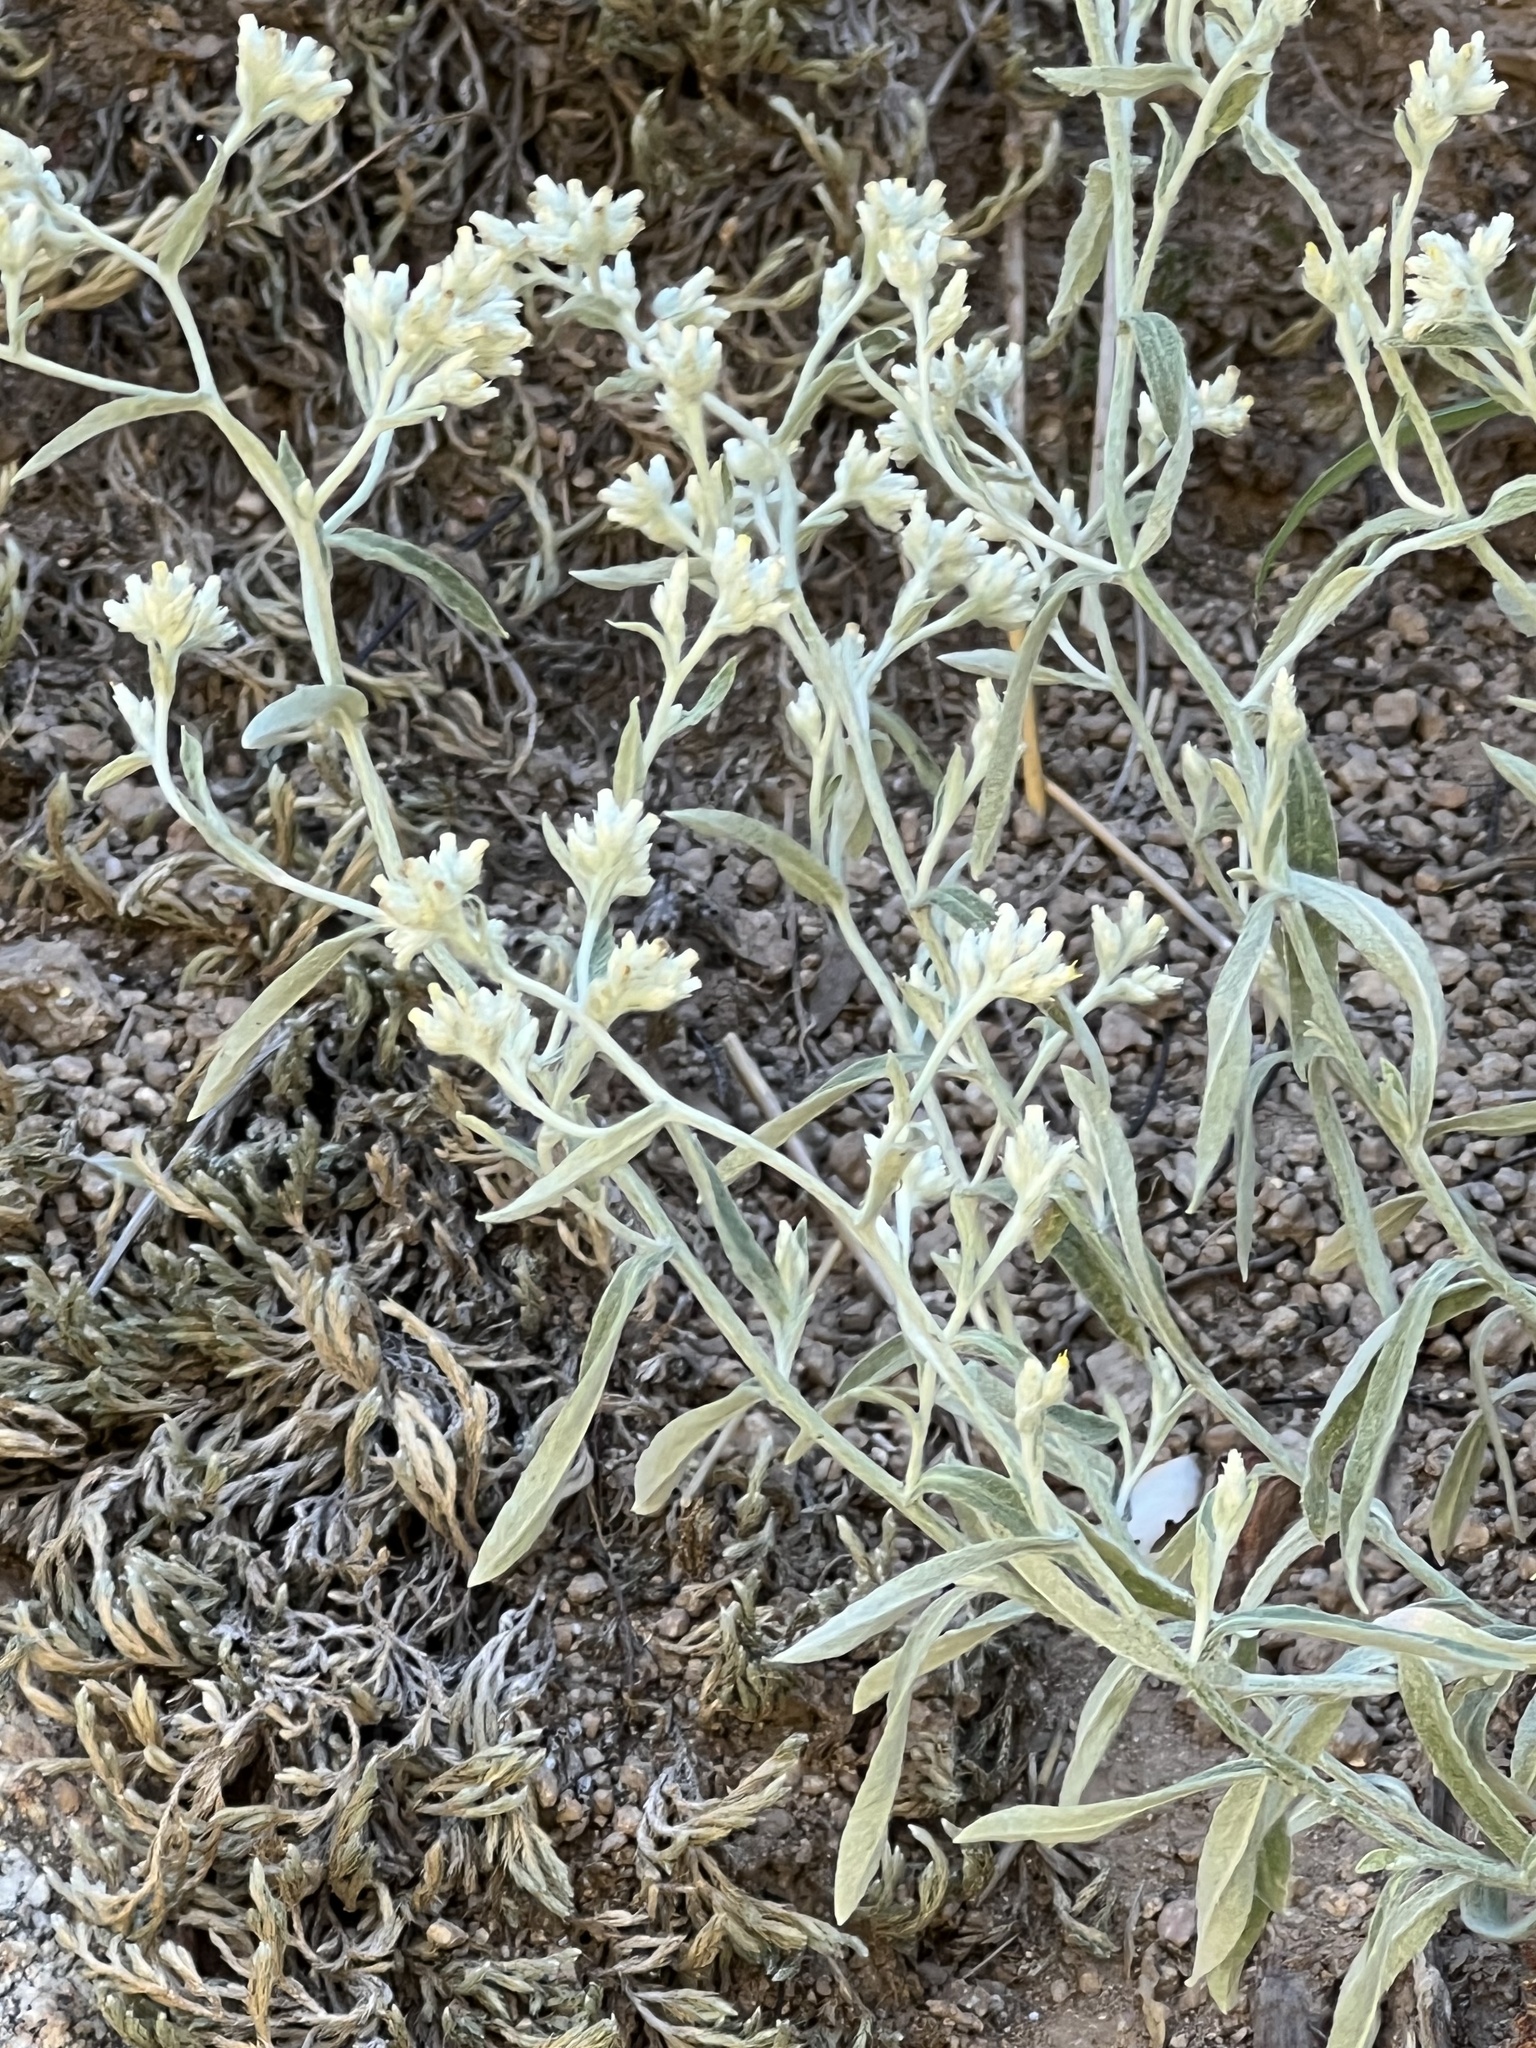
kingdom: Plantae
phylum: Tracheophyta
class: Magnoliopsida
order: Asterales
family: Asteraceae
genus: Pseudognaphalium
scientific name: Pseudognaphalium canescens
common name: Wright's rabbit-tobacco
